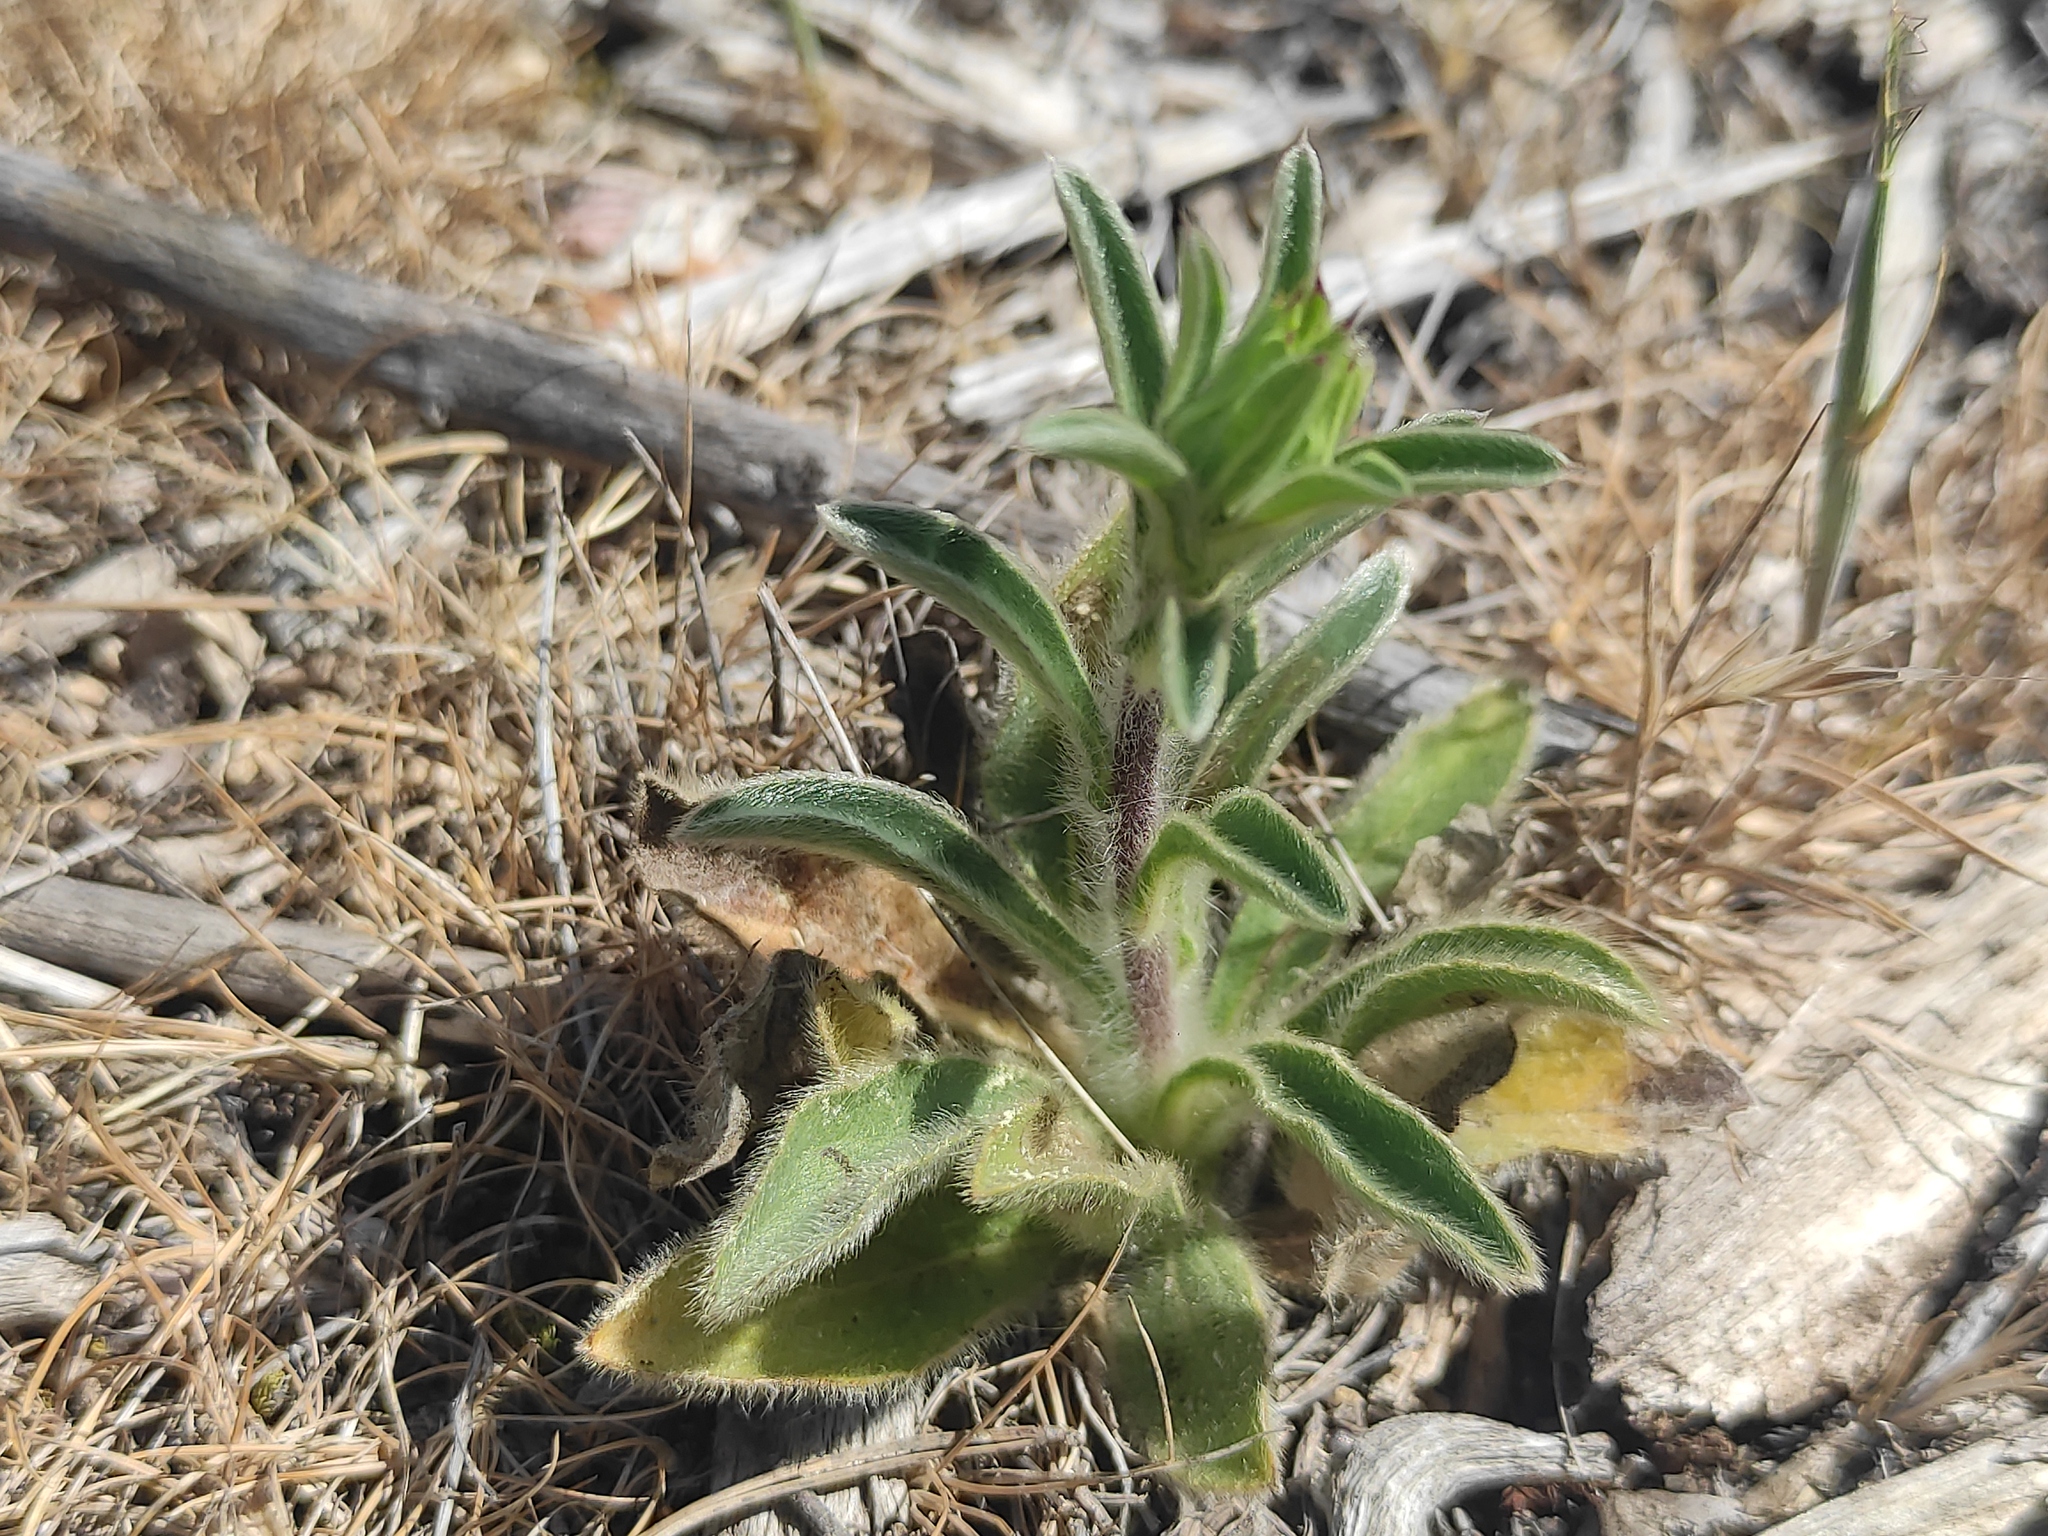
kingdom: Plantae
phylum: Tracheophyta
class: Magnoliopsida
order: Asterales
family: Asteraceae
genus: Pallenis
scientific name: Pallenis spinosa
